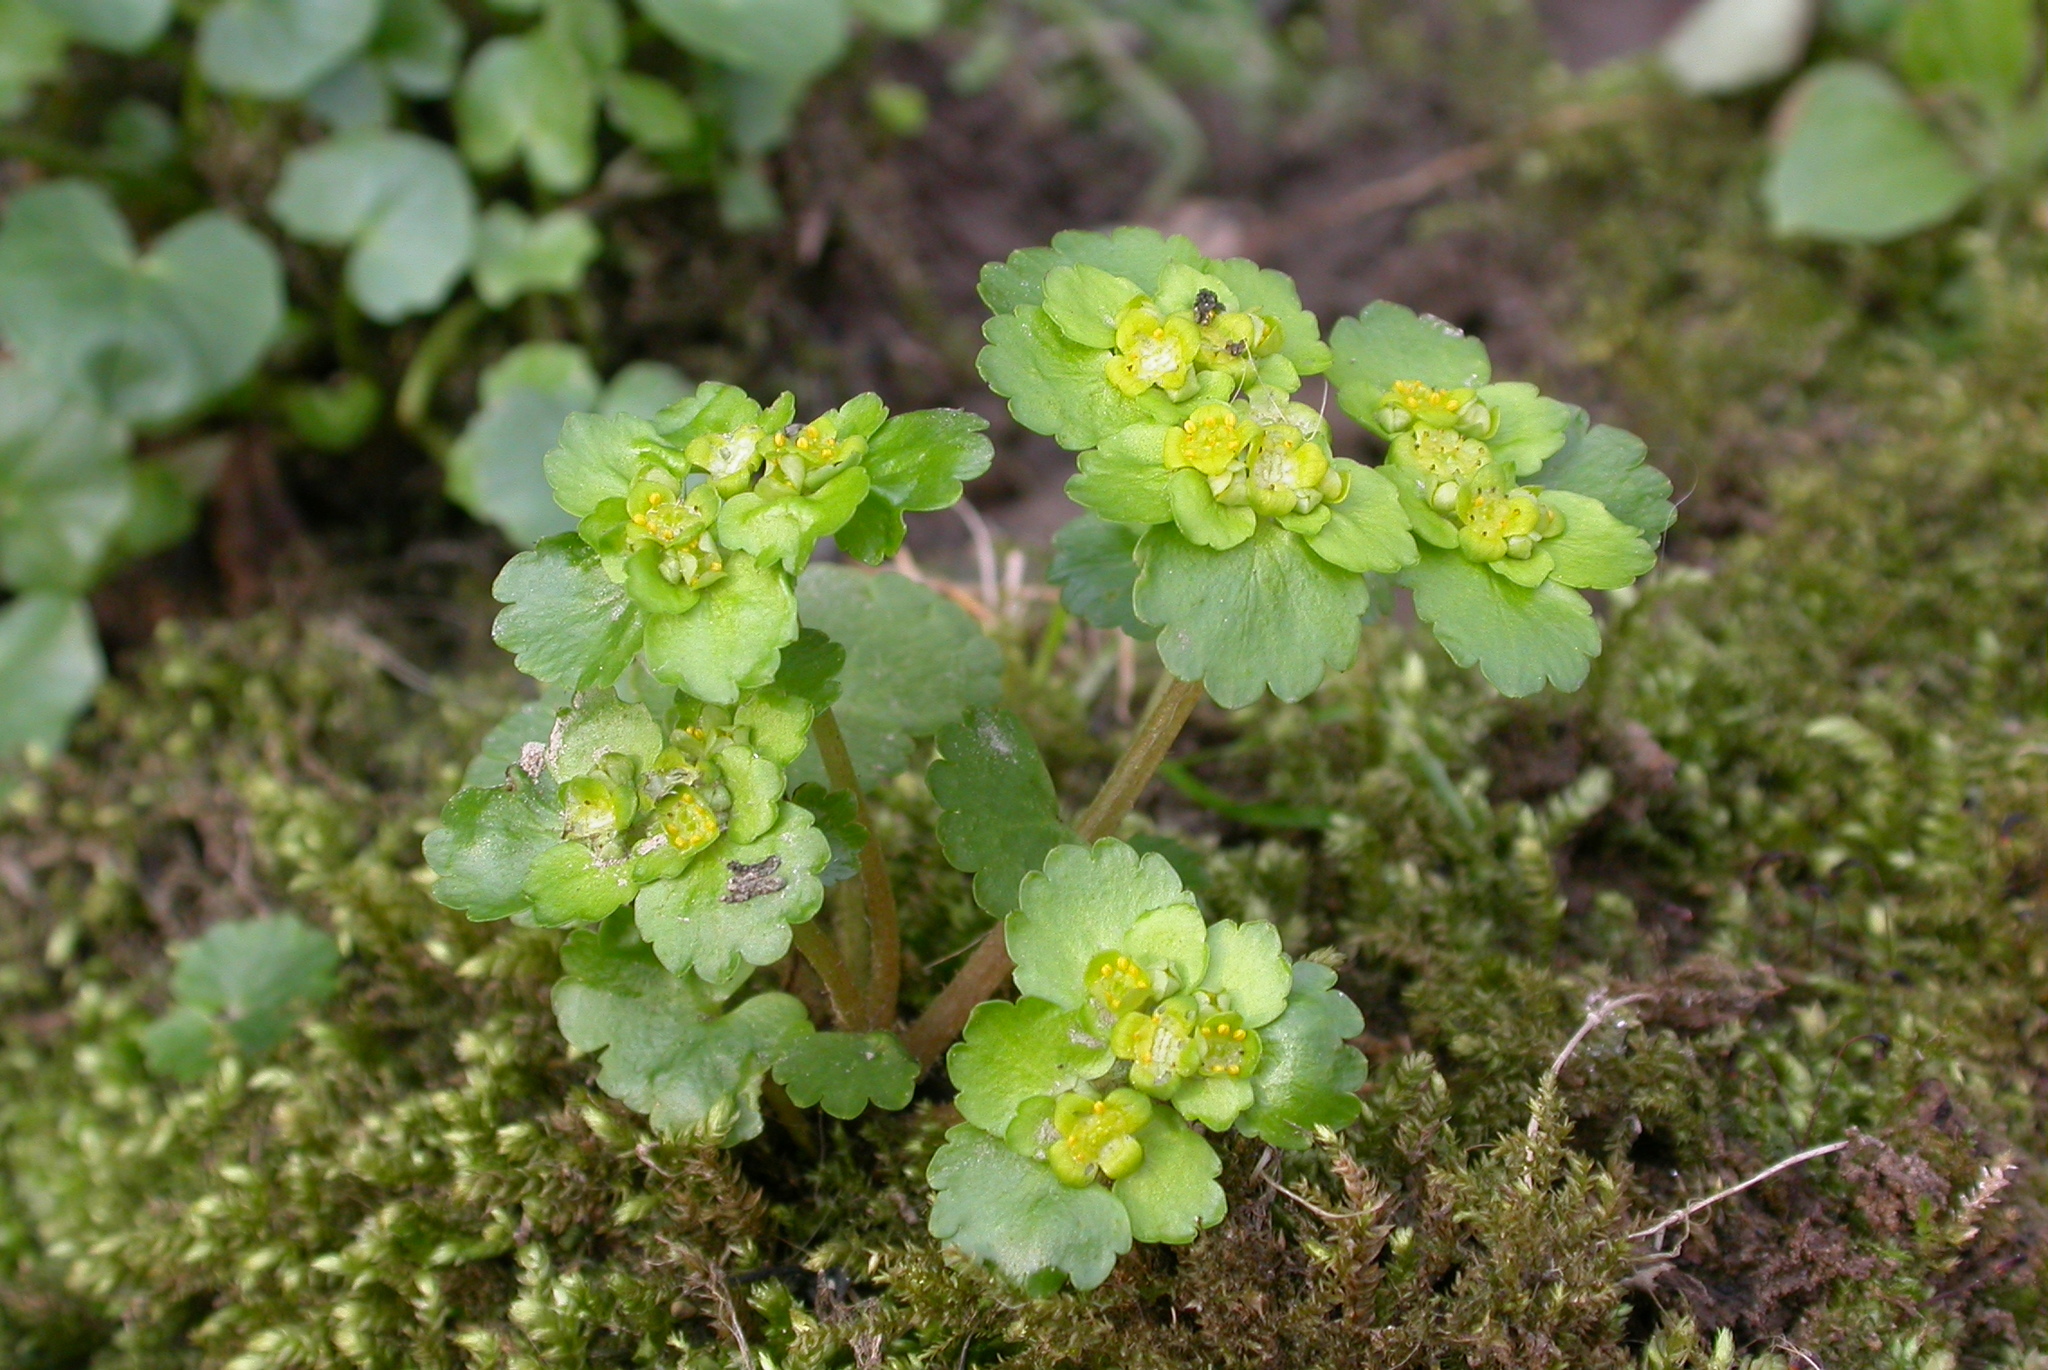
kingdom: Plantae
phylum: Tracheophyta
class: Magnoliopsida
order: Saxifragales
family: Saxifragaceae
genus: Chrysosplenium
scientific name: Chrysosplenium alternifolium
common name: Alternate-leaved golden-saxifrage
